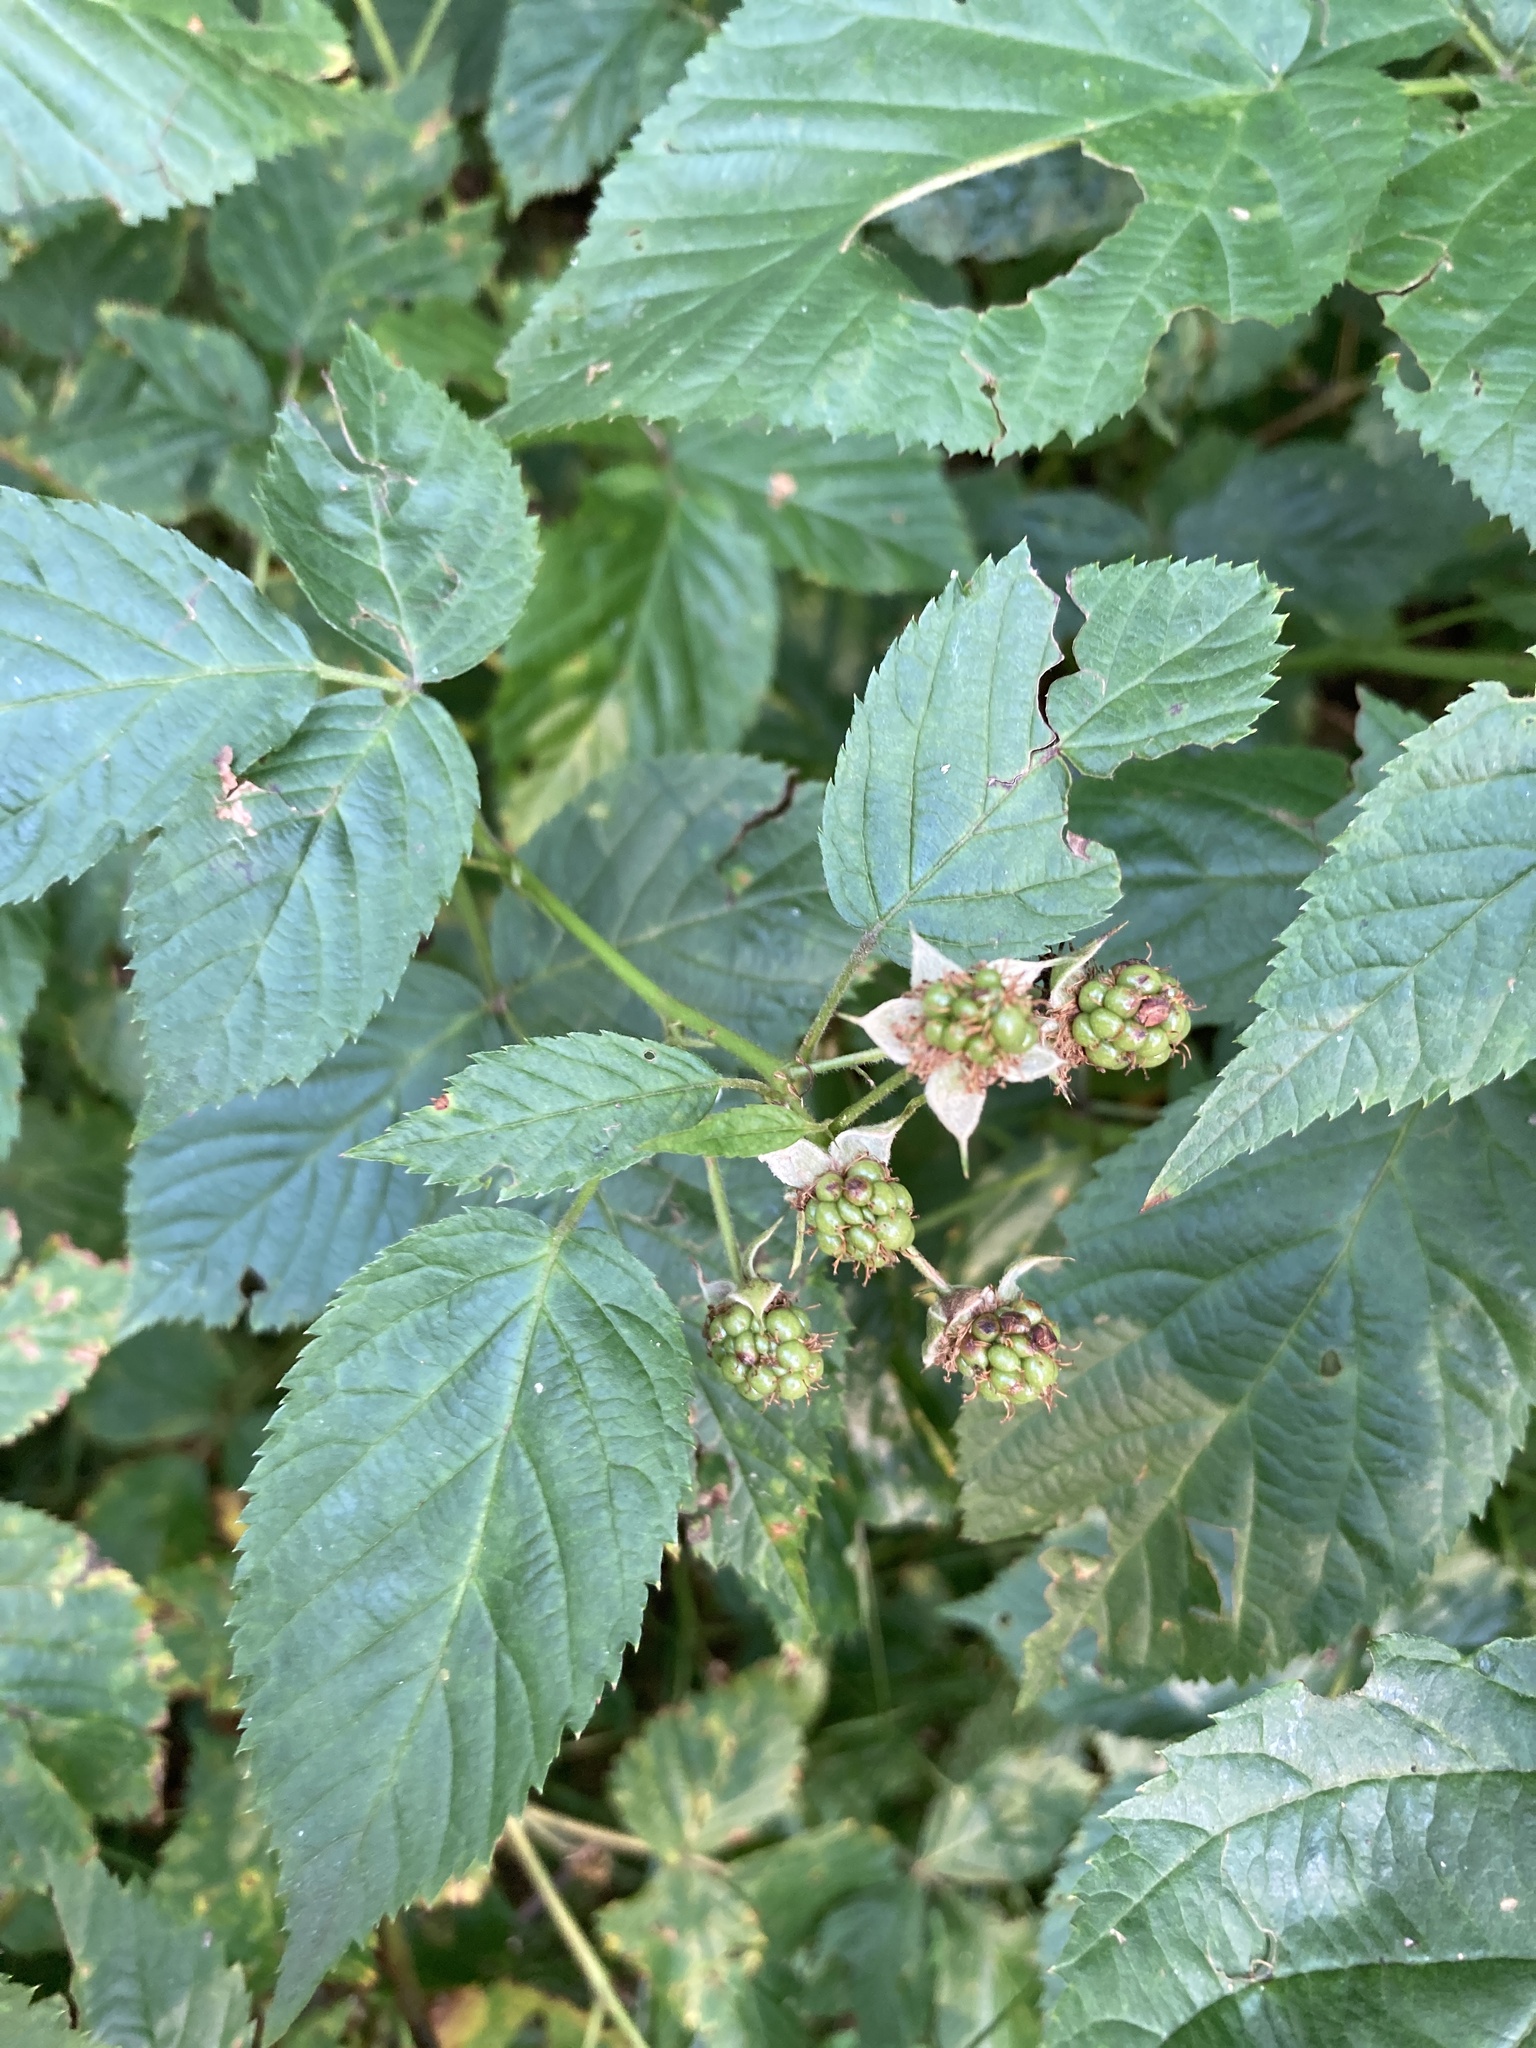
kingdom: Plantae
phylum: Tracheophyta
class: Magnoliopsida
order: Rosales
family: Rosaceae
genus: Rubus
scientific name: Rubus polonicus
